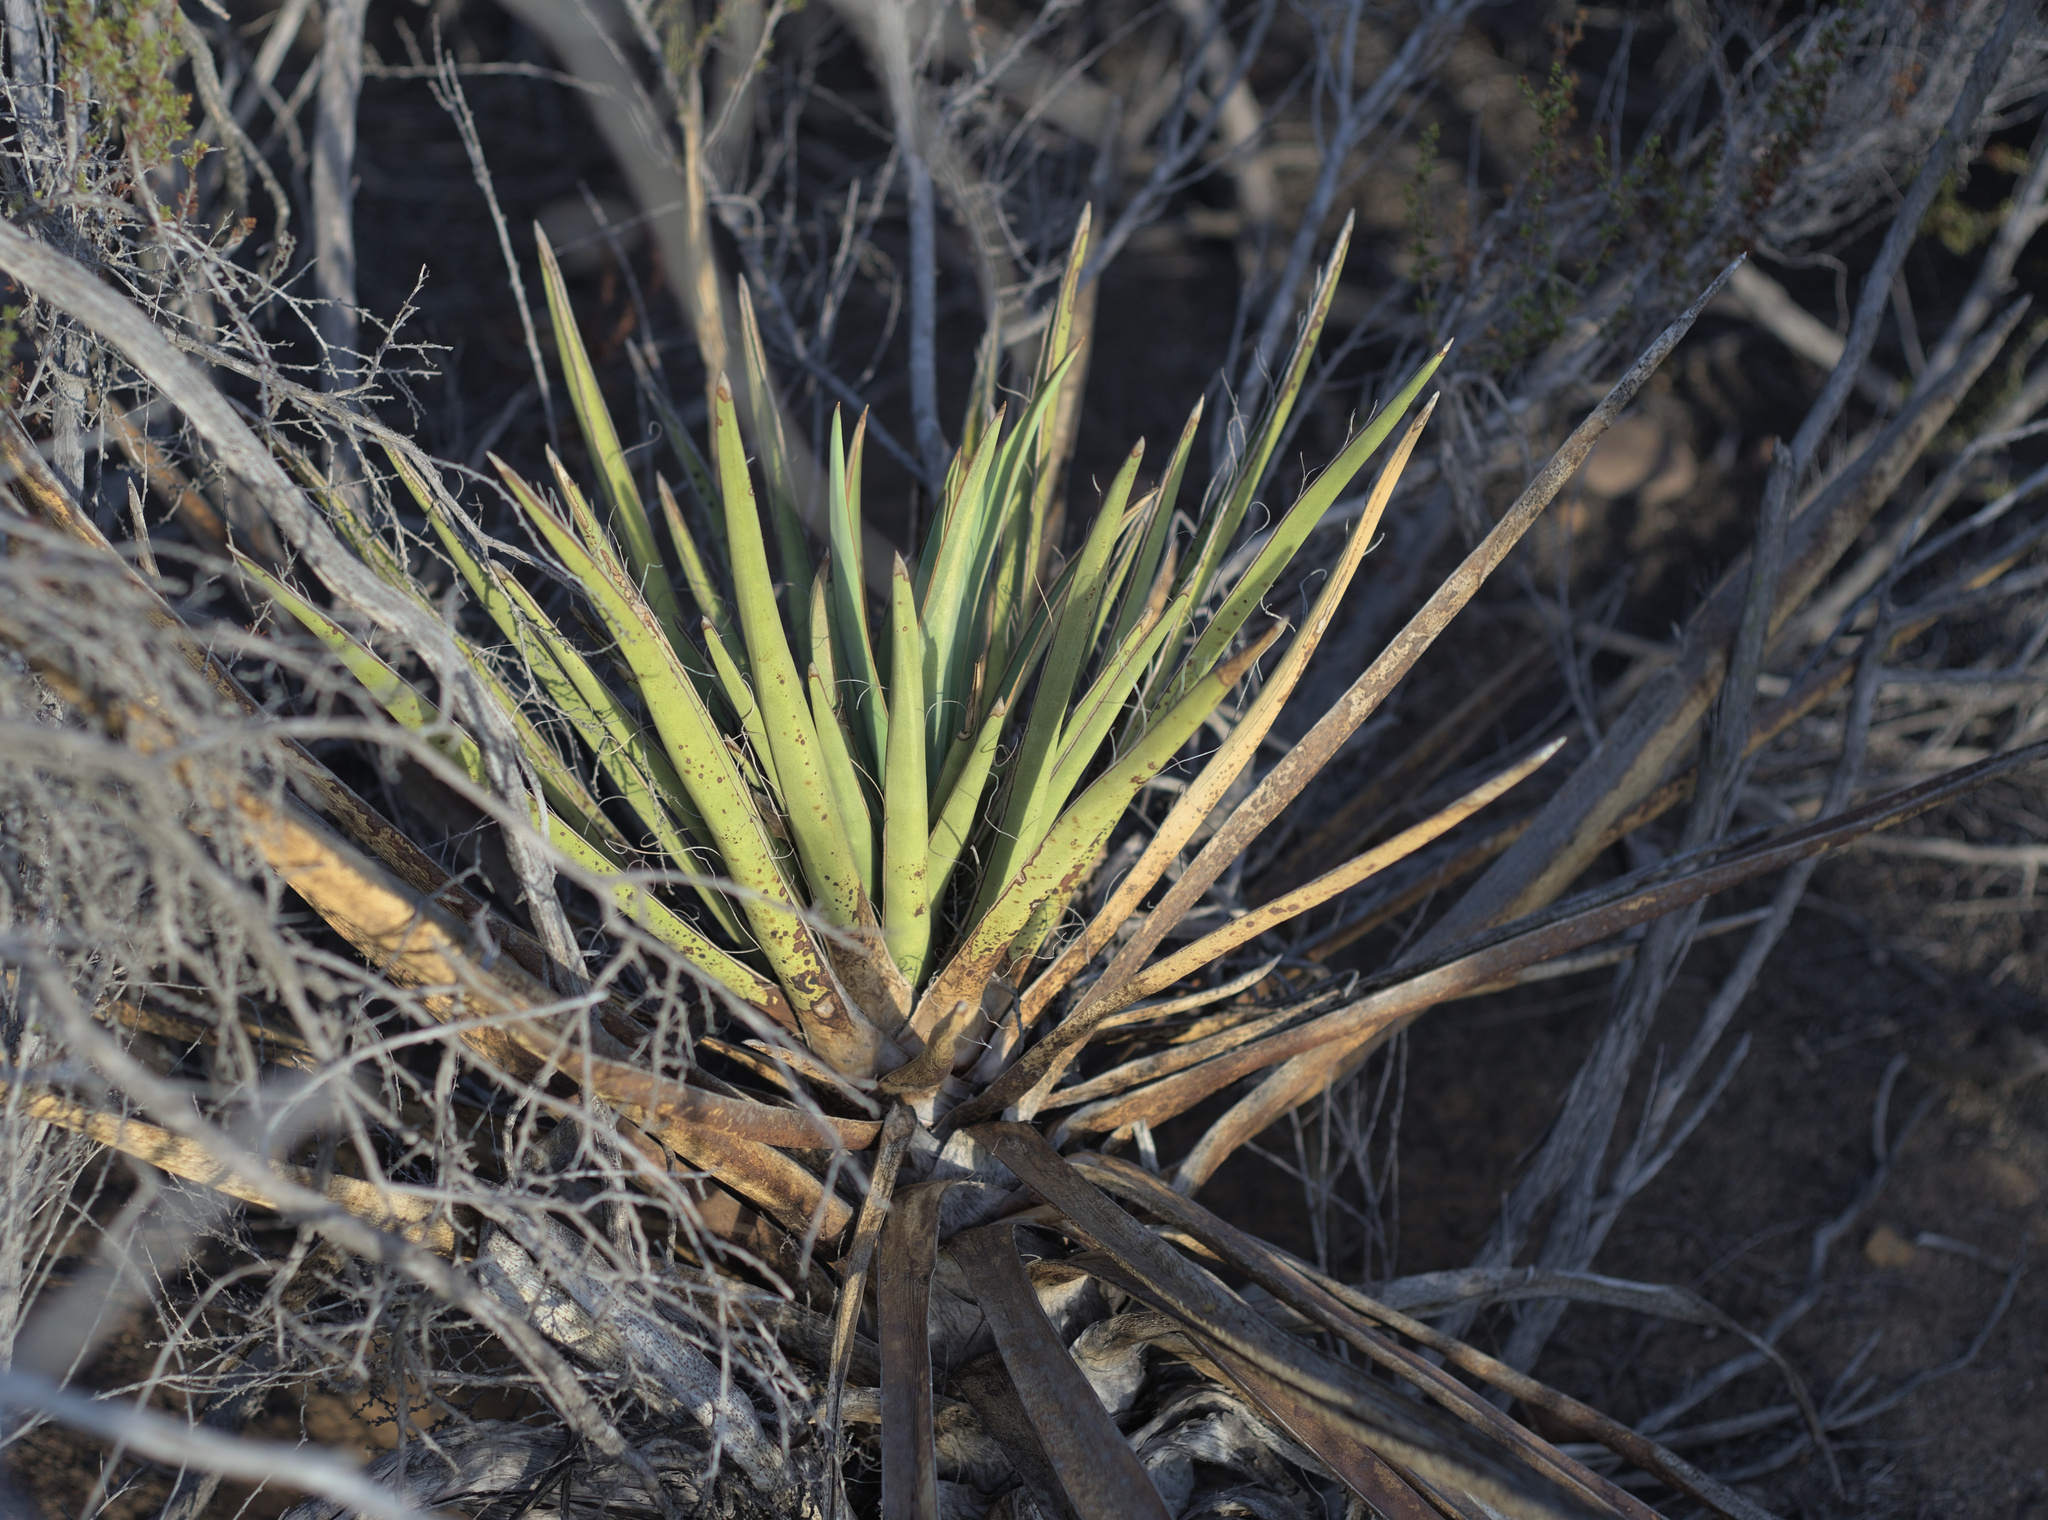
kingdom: Plantae
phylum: Tracheophyta
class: Liliopsida
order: Asparagales
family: Asparagaceae
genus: Yucca
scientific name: Yucca schidigera
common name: Mojave yucca
